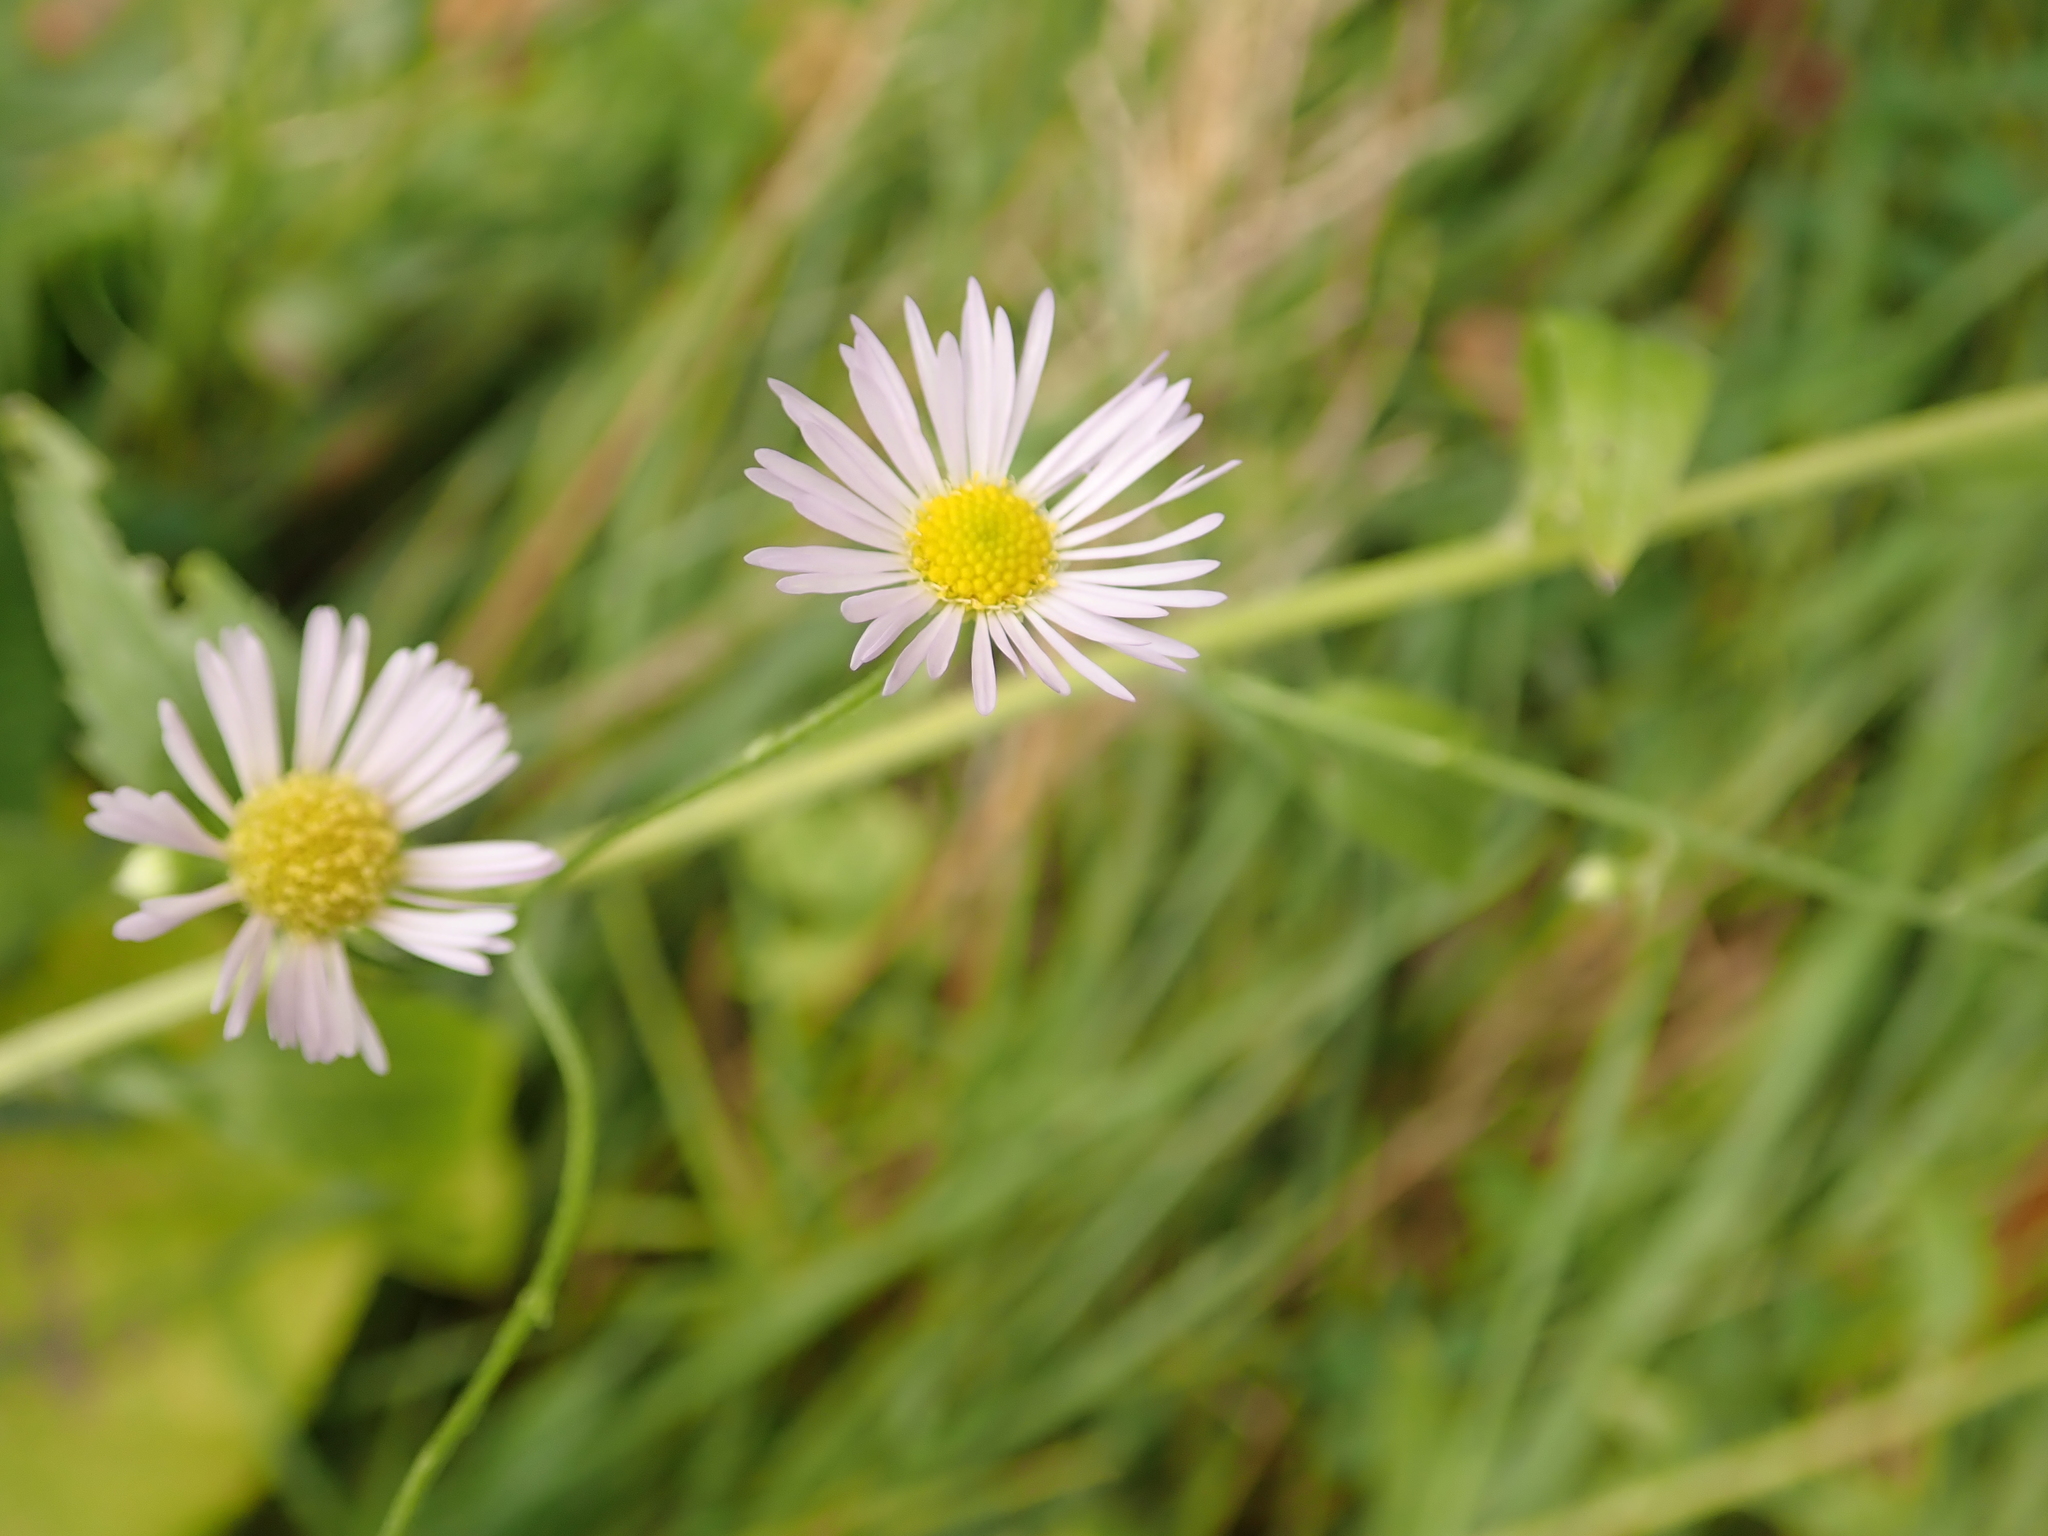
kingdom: Plantae
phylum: Tracheophyta
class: Magnoliopsida
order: Asterales
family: Asteraceae
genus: Erigeron
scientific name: Erigeron annuus
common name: Tall fleabane
